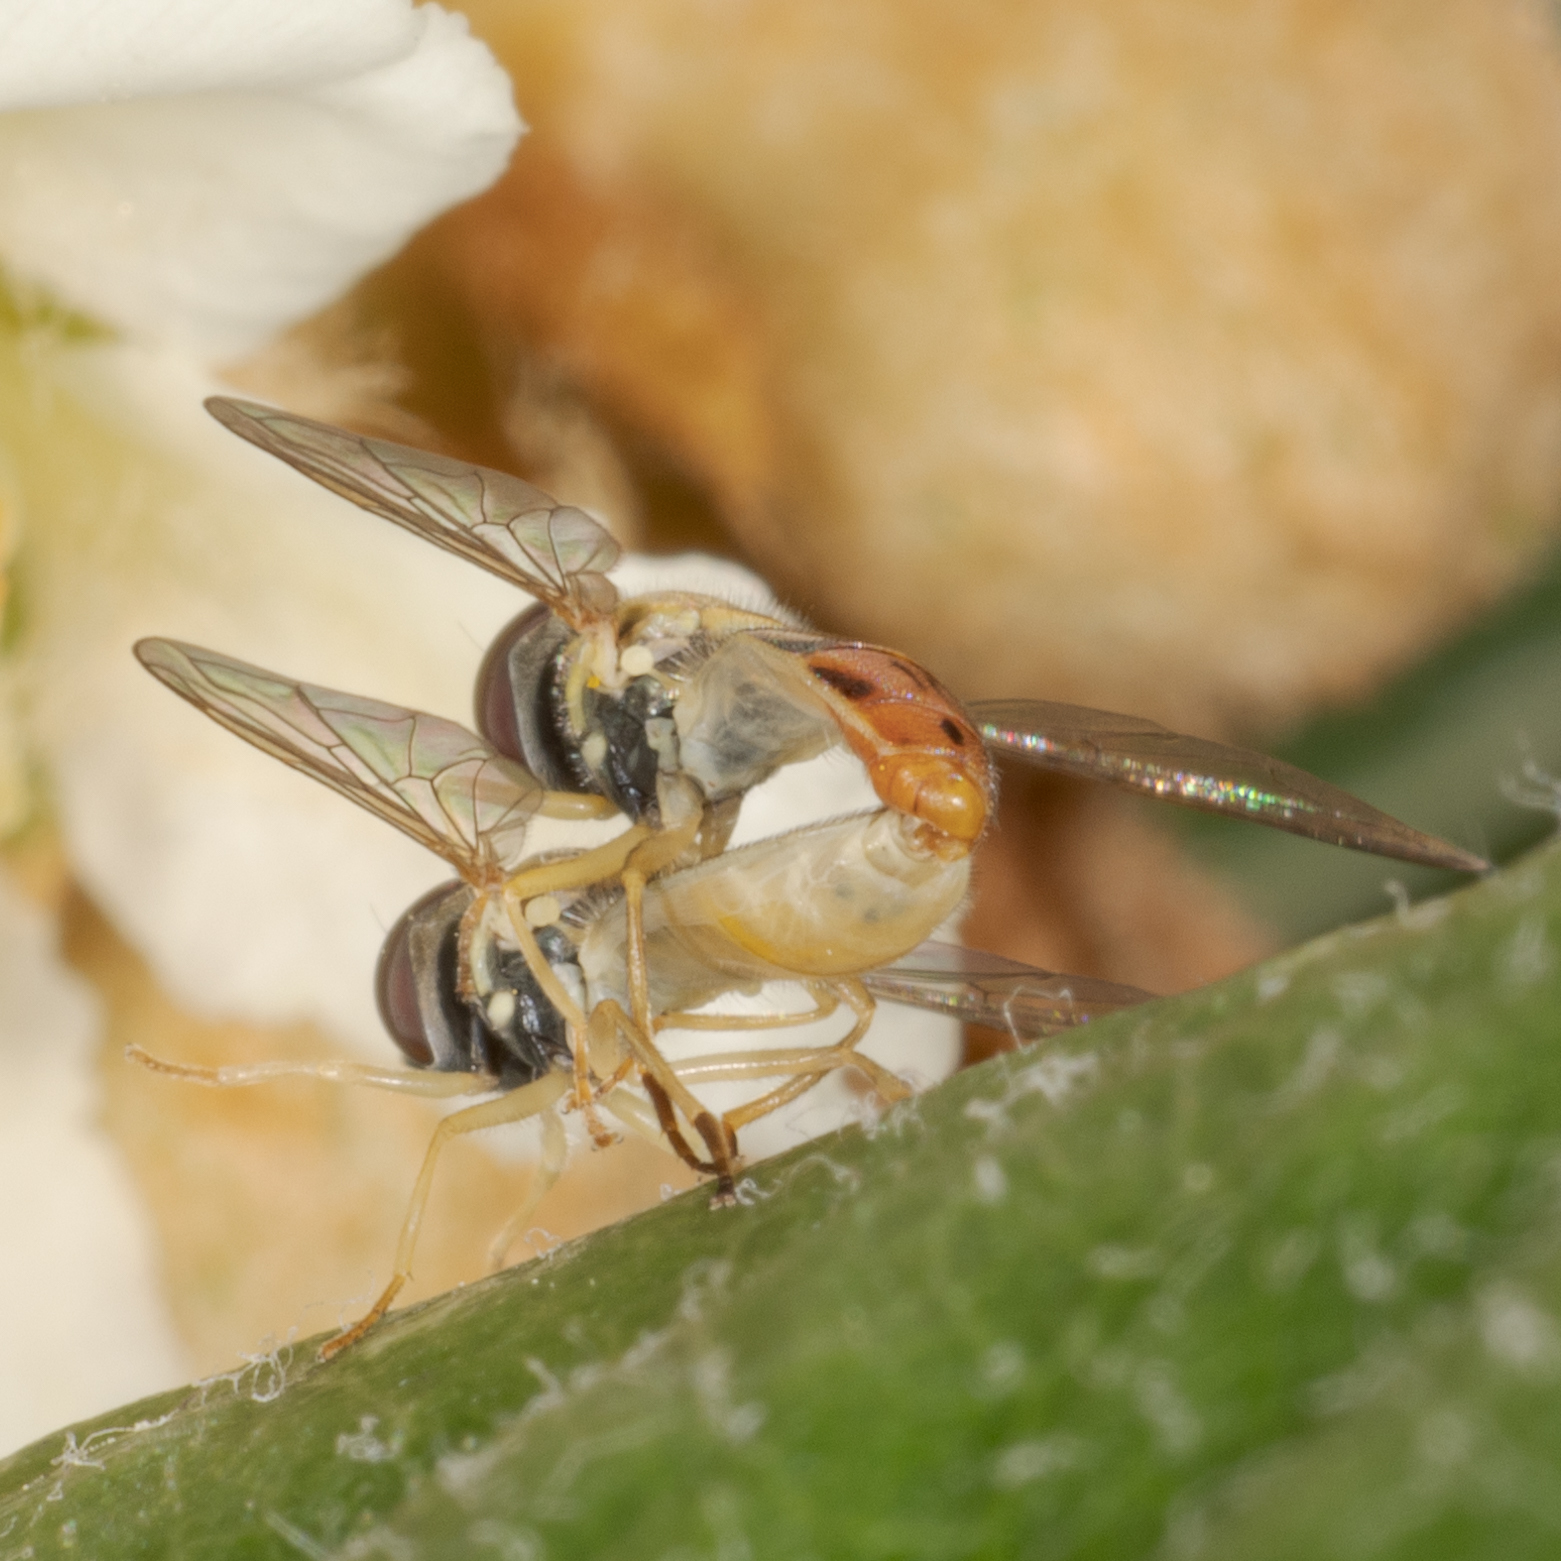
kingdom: Animalia
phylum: Arthropoda
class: Insecta
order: Diptera
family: Syrphidae
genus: Toxomerus
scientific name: Toxomerus marginatus
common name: Syrphid fly
